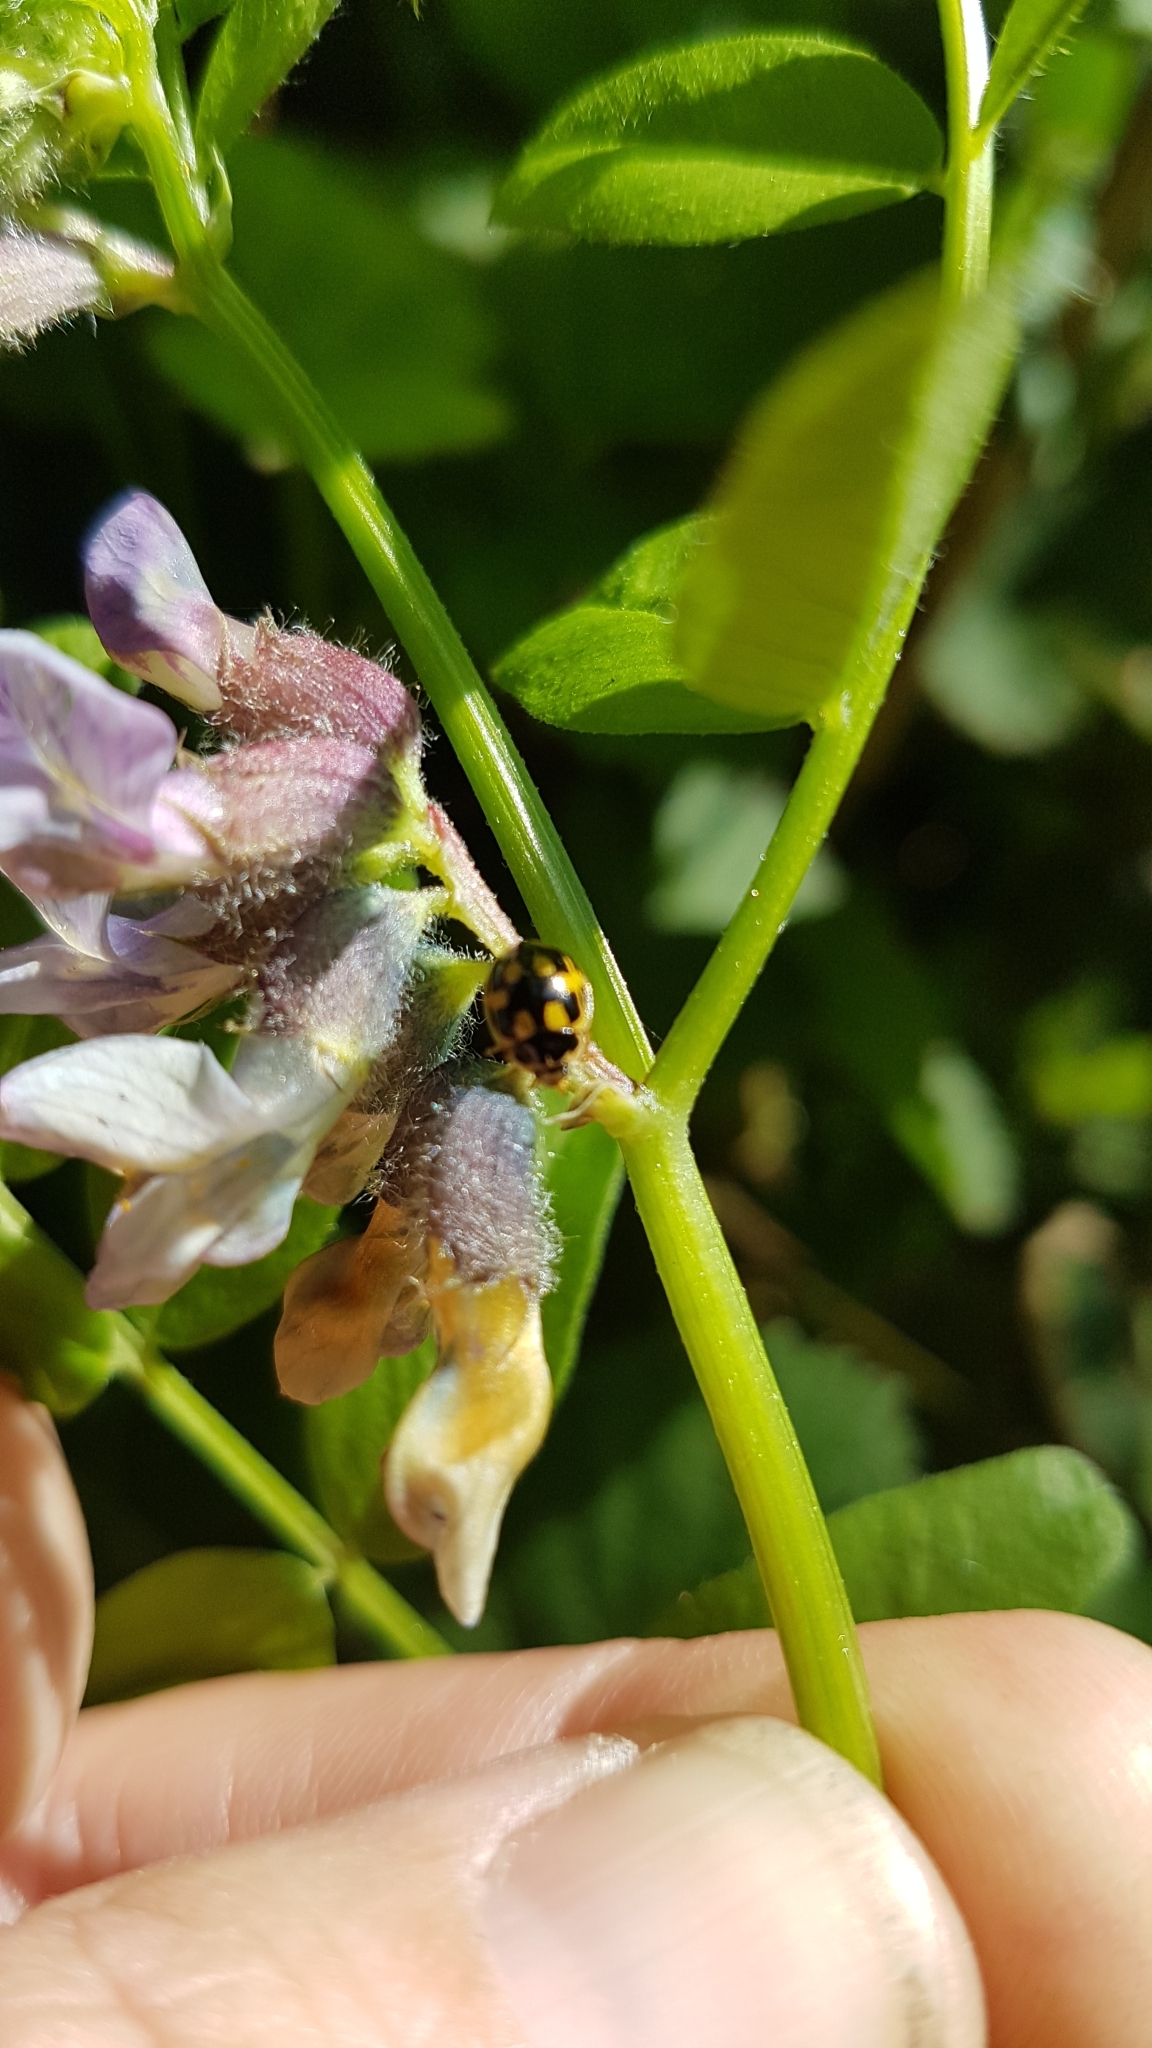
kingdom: Animalia
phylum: Arthropoda
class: Insecta
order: Coleoptera
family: Coccinellidae
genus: Propylaea
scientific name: Propylaea quatuordecimpunctata
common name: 14-spotted ladybird beetle
